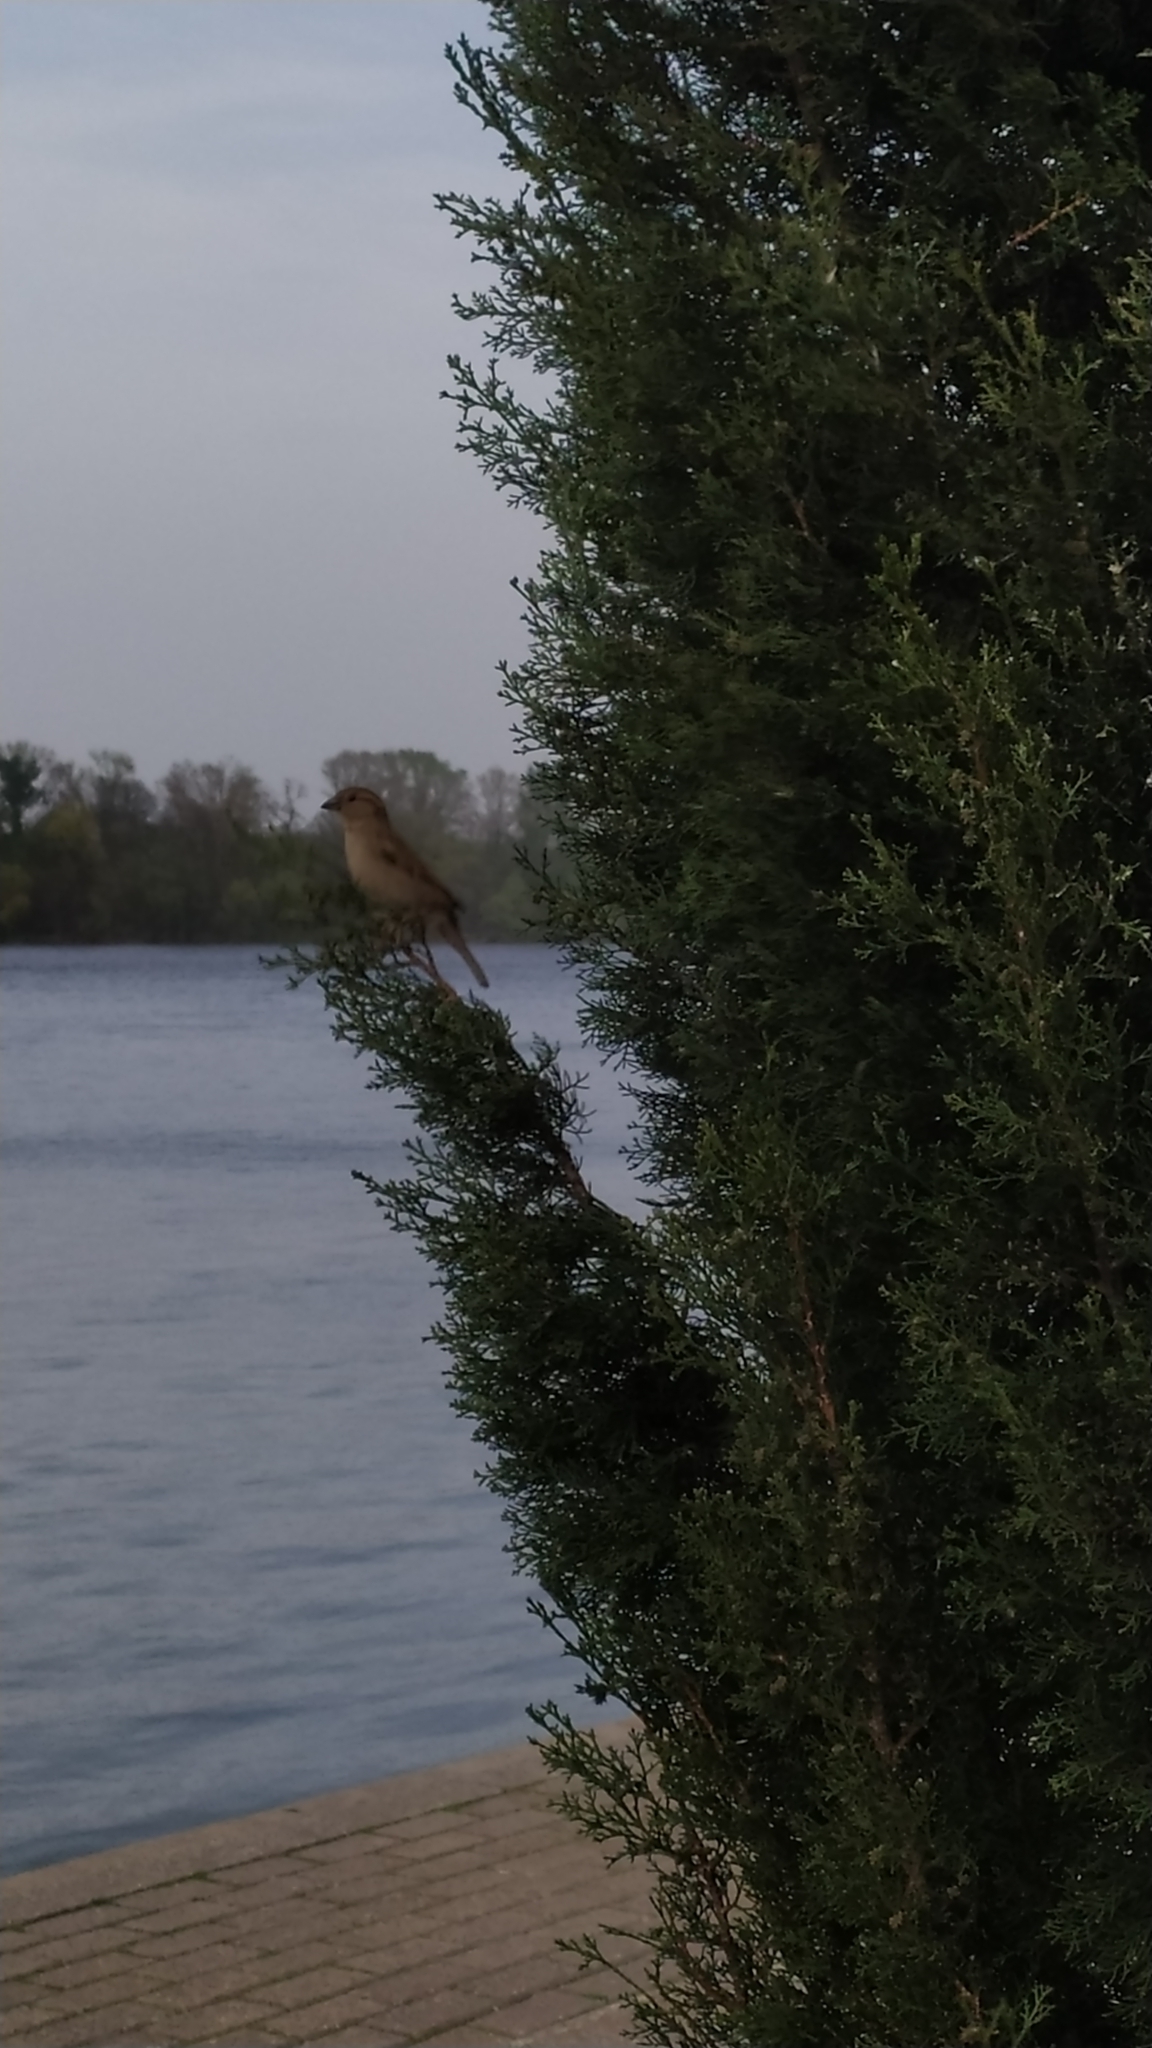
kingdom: Animalia
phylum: Chordata
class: Aves
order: Passeriformes
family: Passeridae
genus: Passer
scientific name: Passer domesticus
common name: House sparrow
